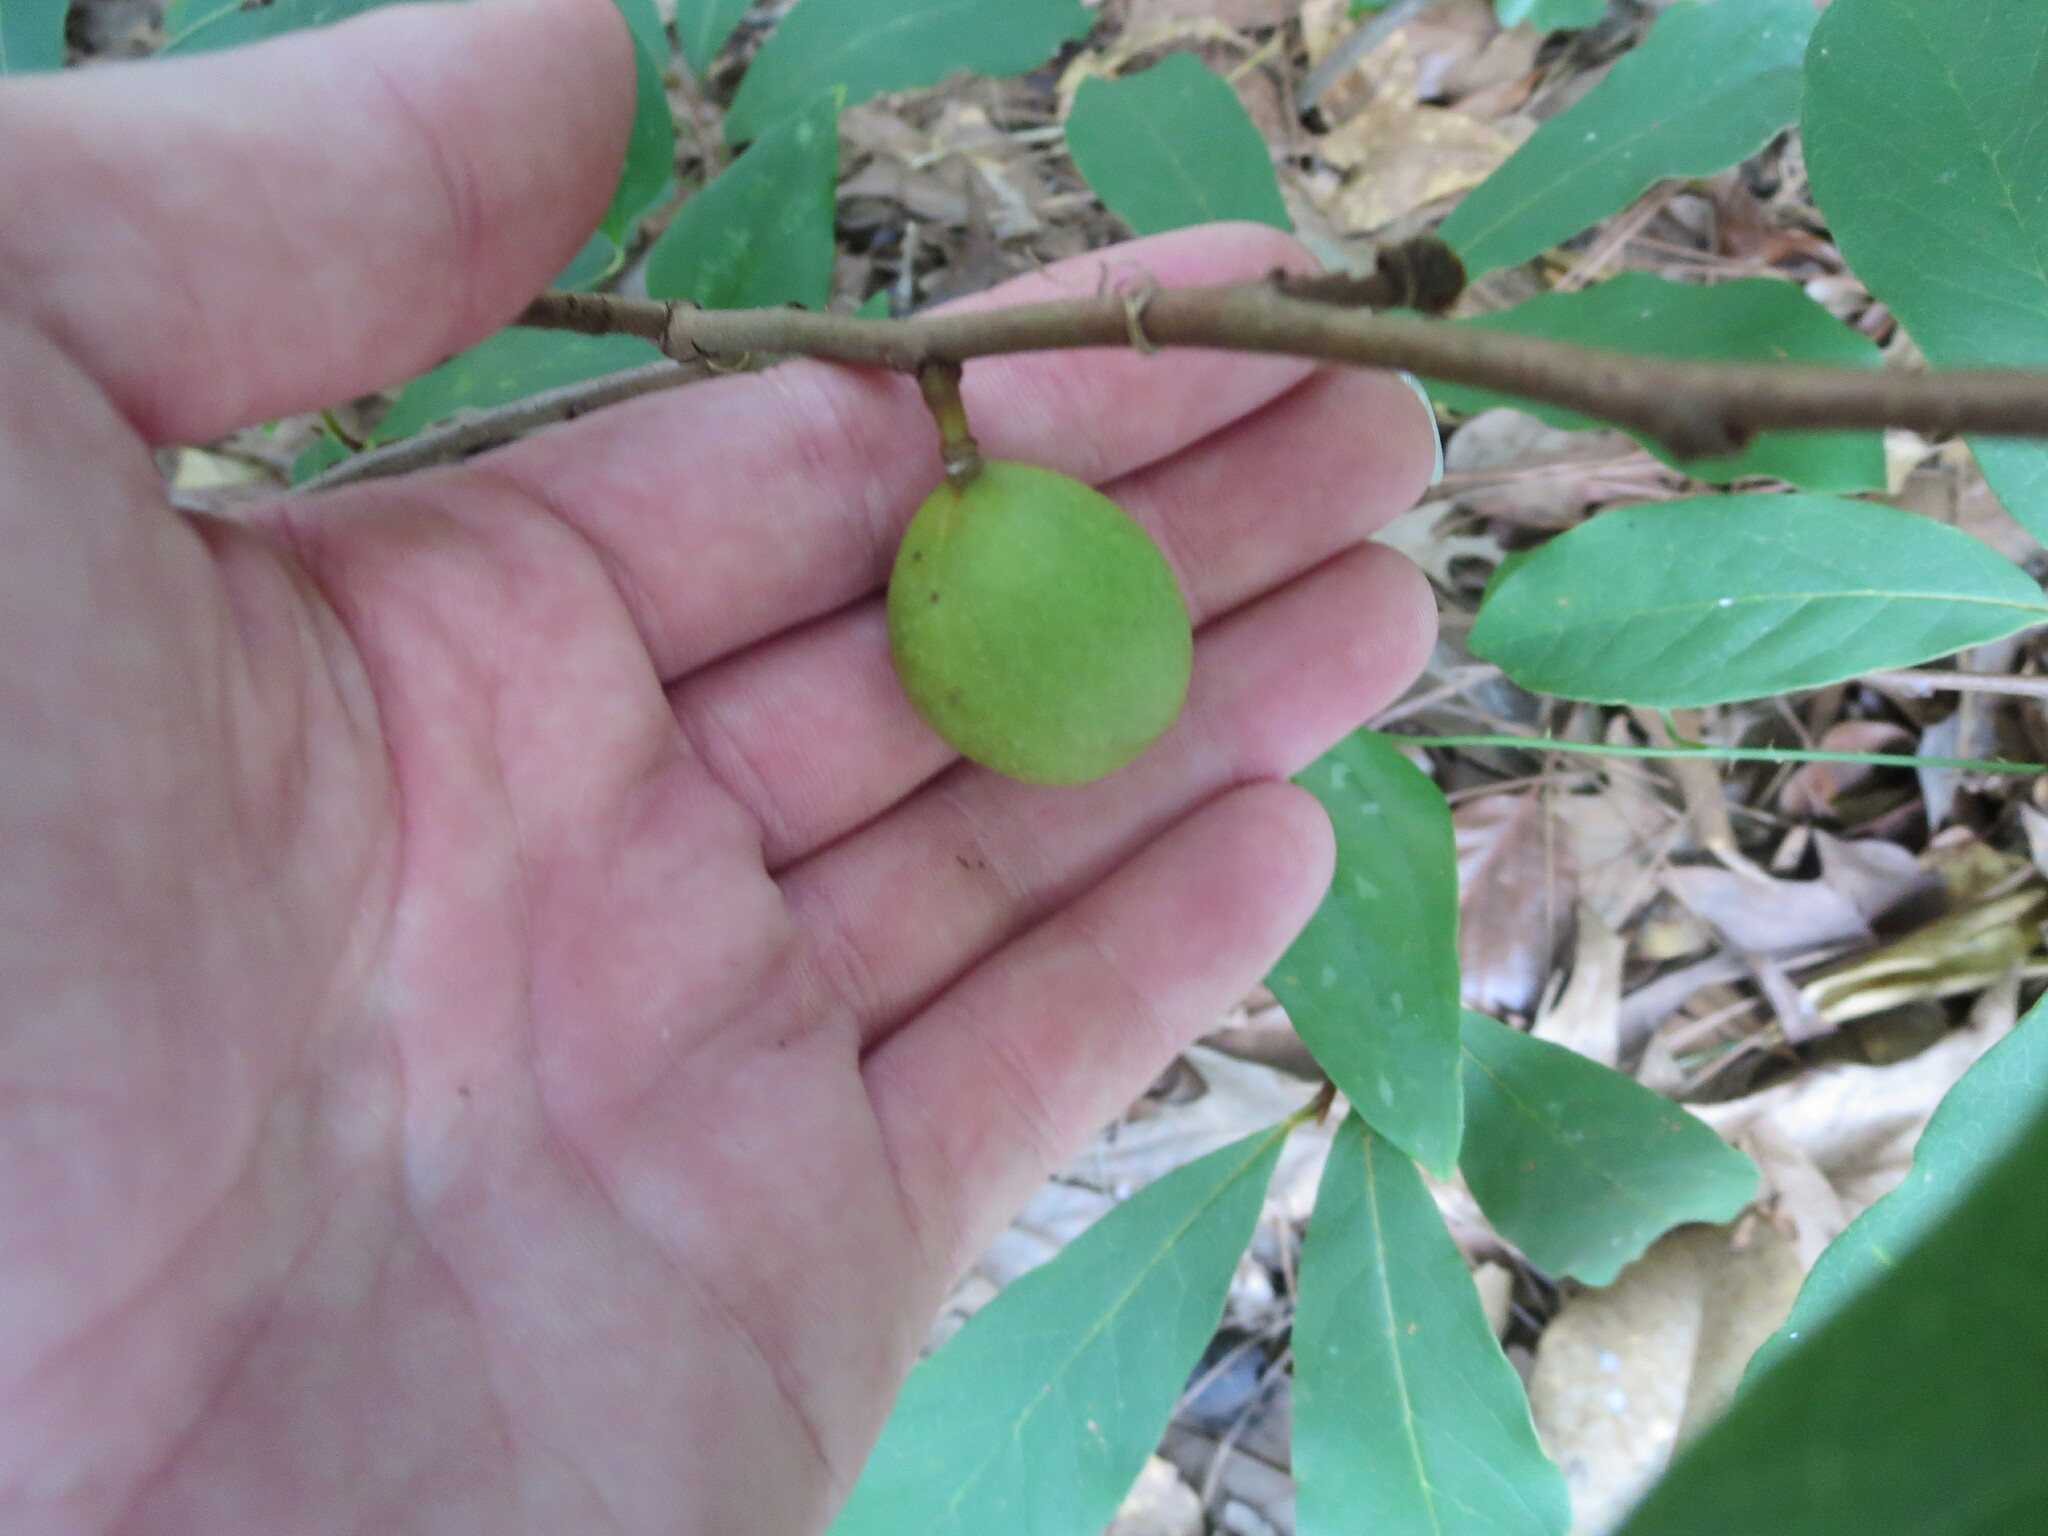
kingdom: Plantae
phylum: Tracheophyta
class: Magnoliopsida
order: Magnoliales
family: Annonaceae
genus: Asimina
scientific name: Asimina parviflora
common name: Dwarf pawpaw
